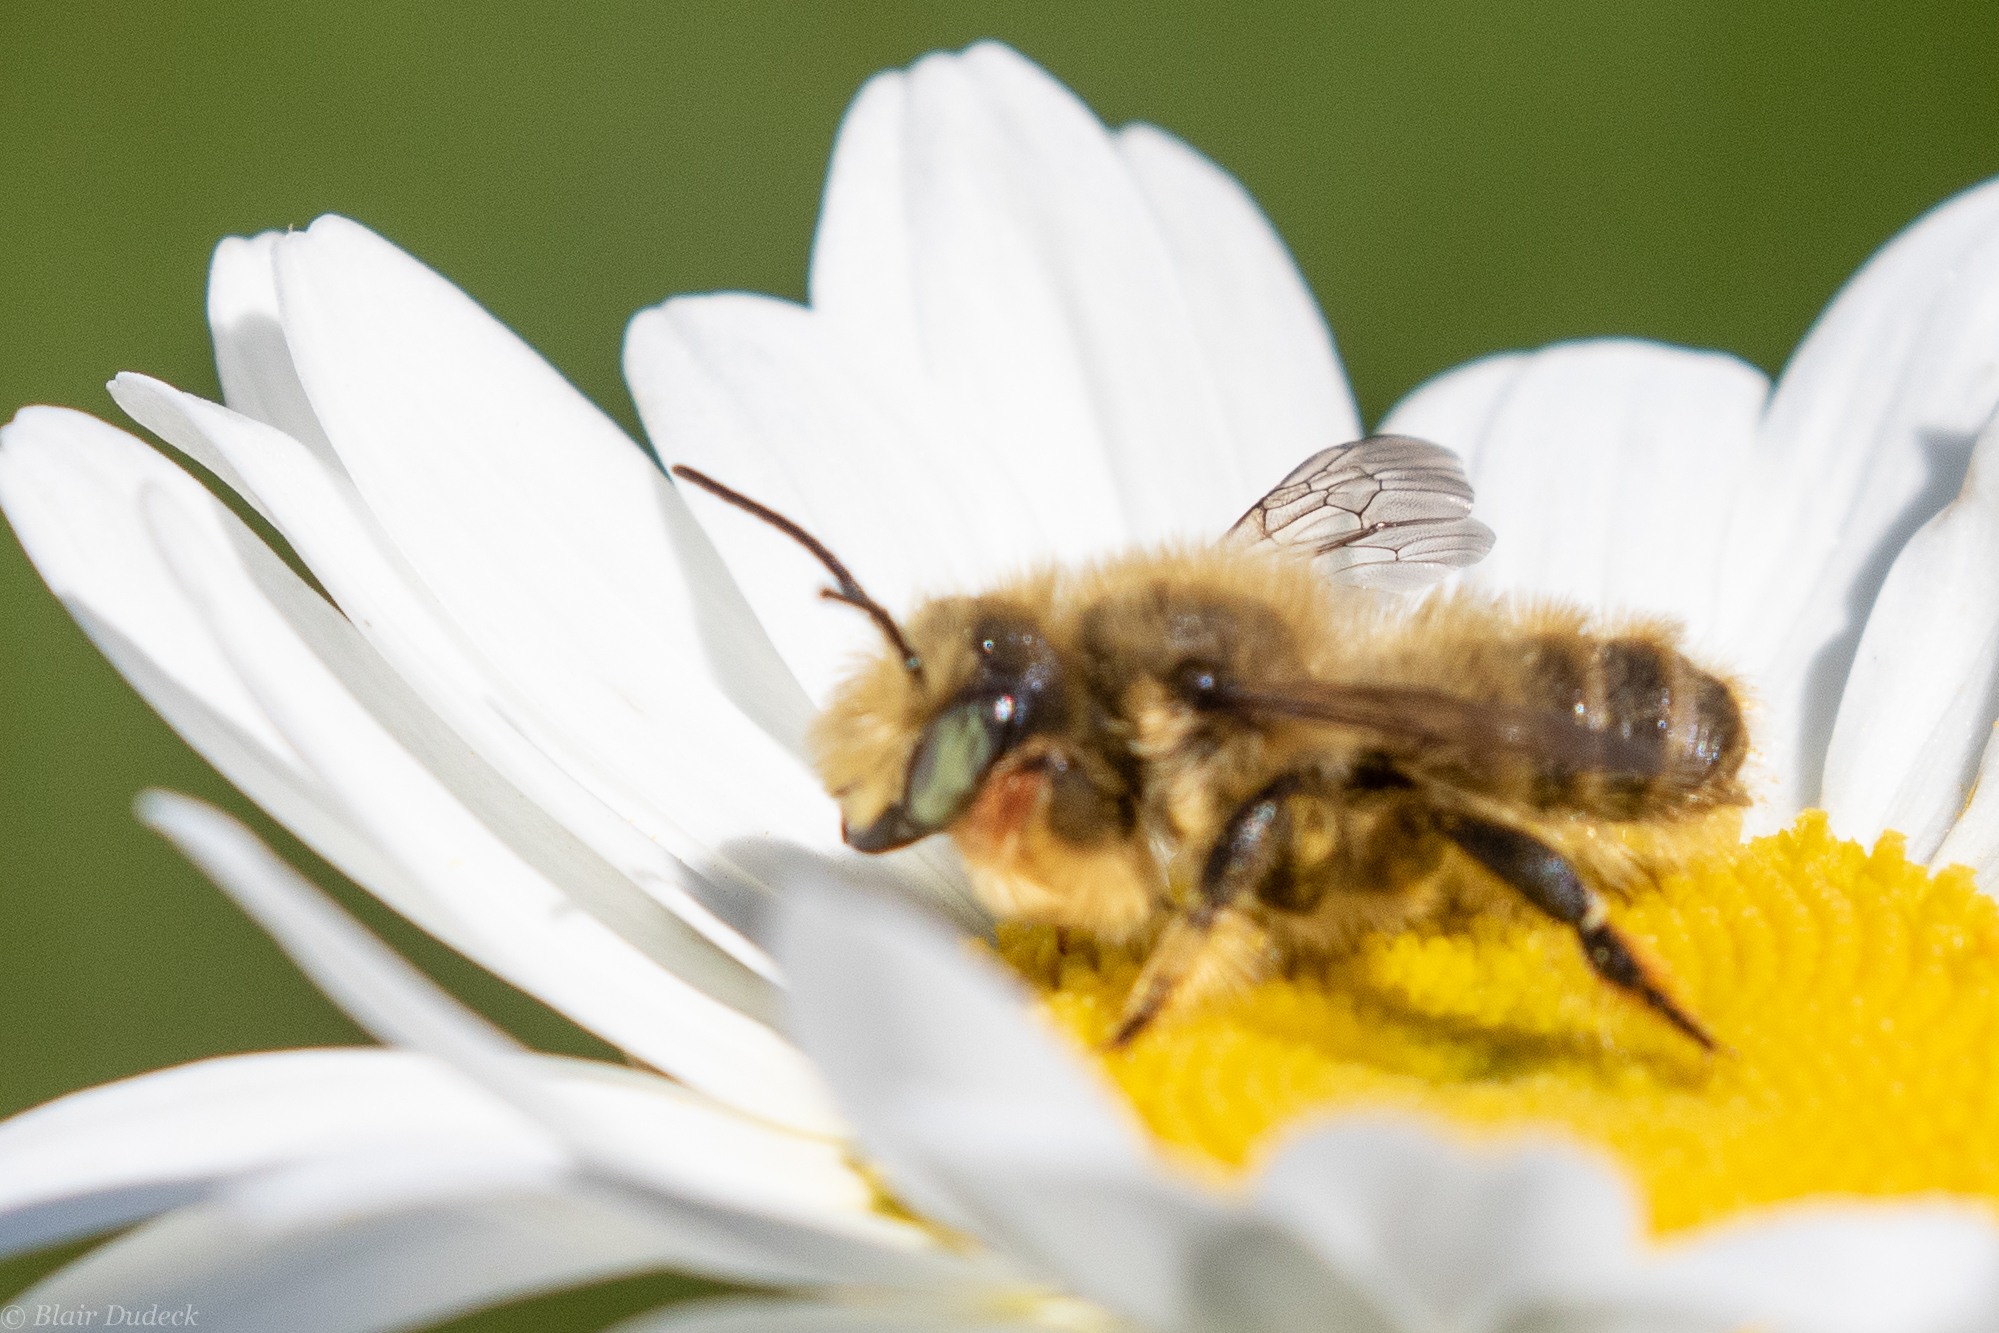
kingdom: Animalia
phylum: Arthropoda
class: Insecta
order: Hymenoptera
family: Megachilidae
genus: Megachile
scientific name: Megachile perihirta
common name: Western leafcutter
